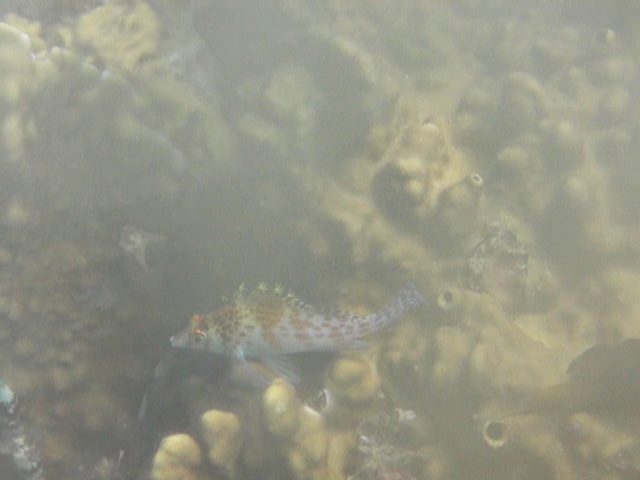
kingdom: Animalia
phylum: Chordata
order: Perciformes
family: Cirrhitidae
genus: Cirrhitichthys
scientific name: Cirrhitichthys falco
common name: Coral hawkfish
